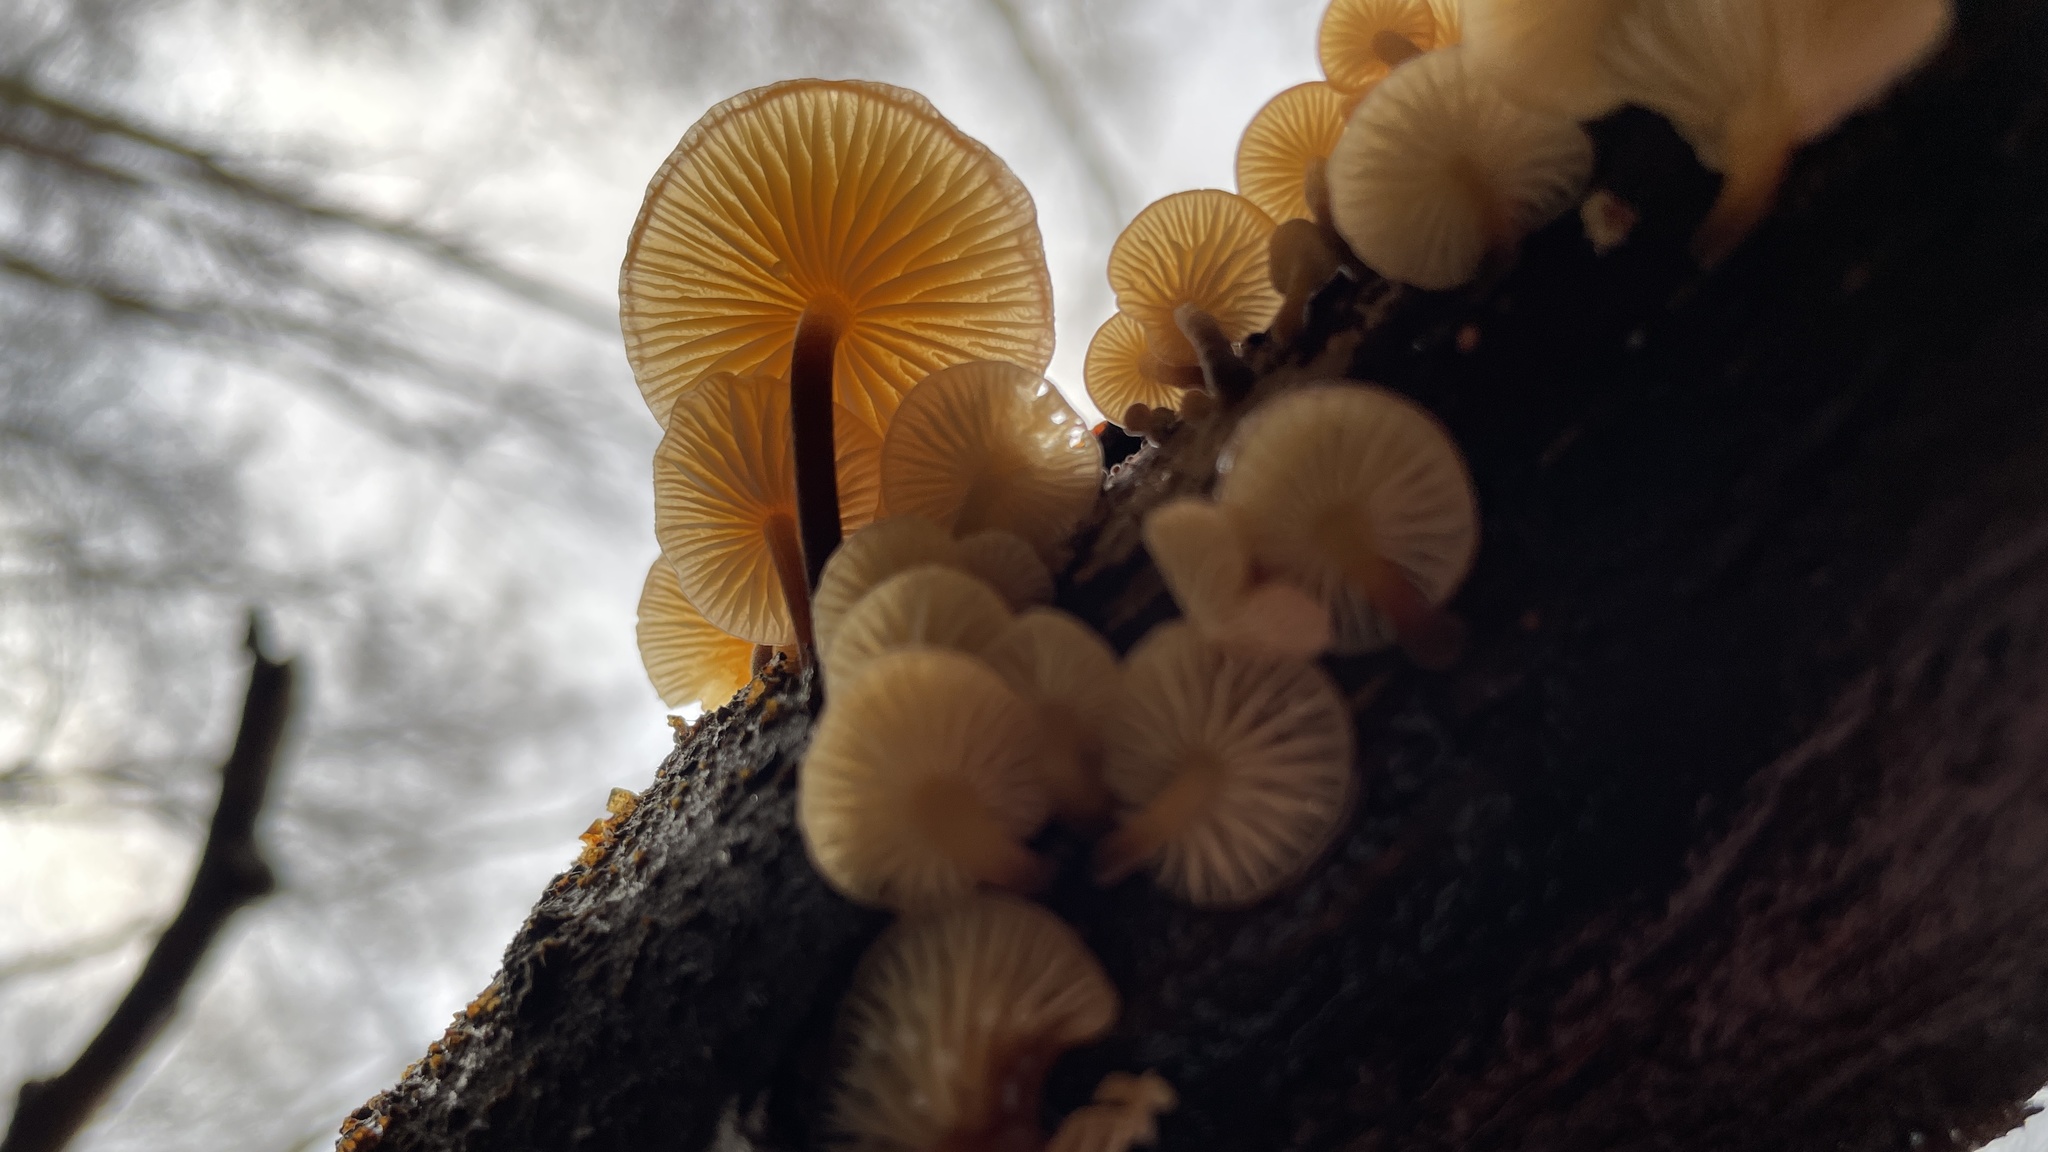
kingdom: Fungi
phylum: Basidiomycota
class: Agaricomycetes
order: Agaricales
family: Physalacriaceae
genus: Flammulina
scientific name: Flammulina
